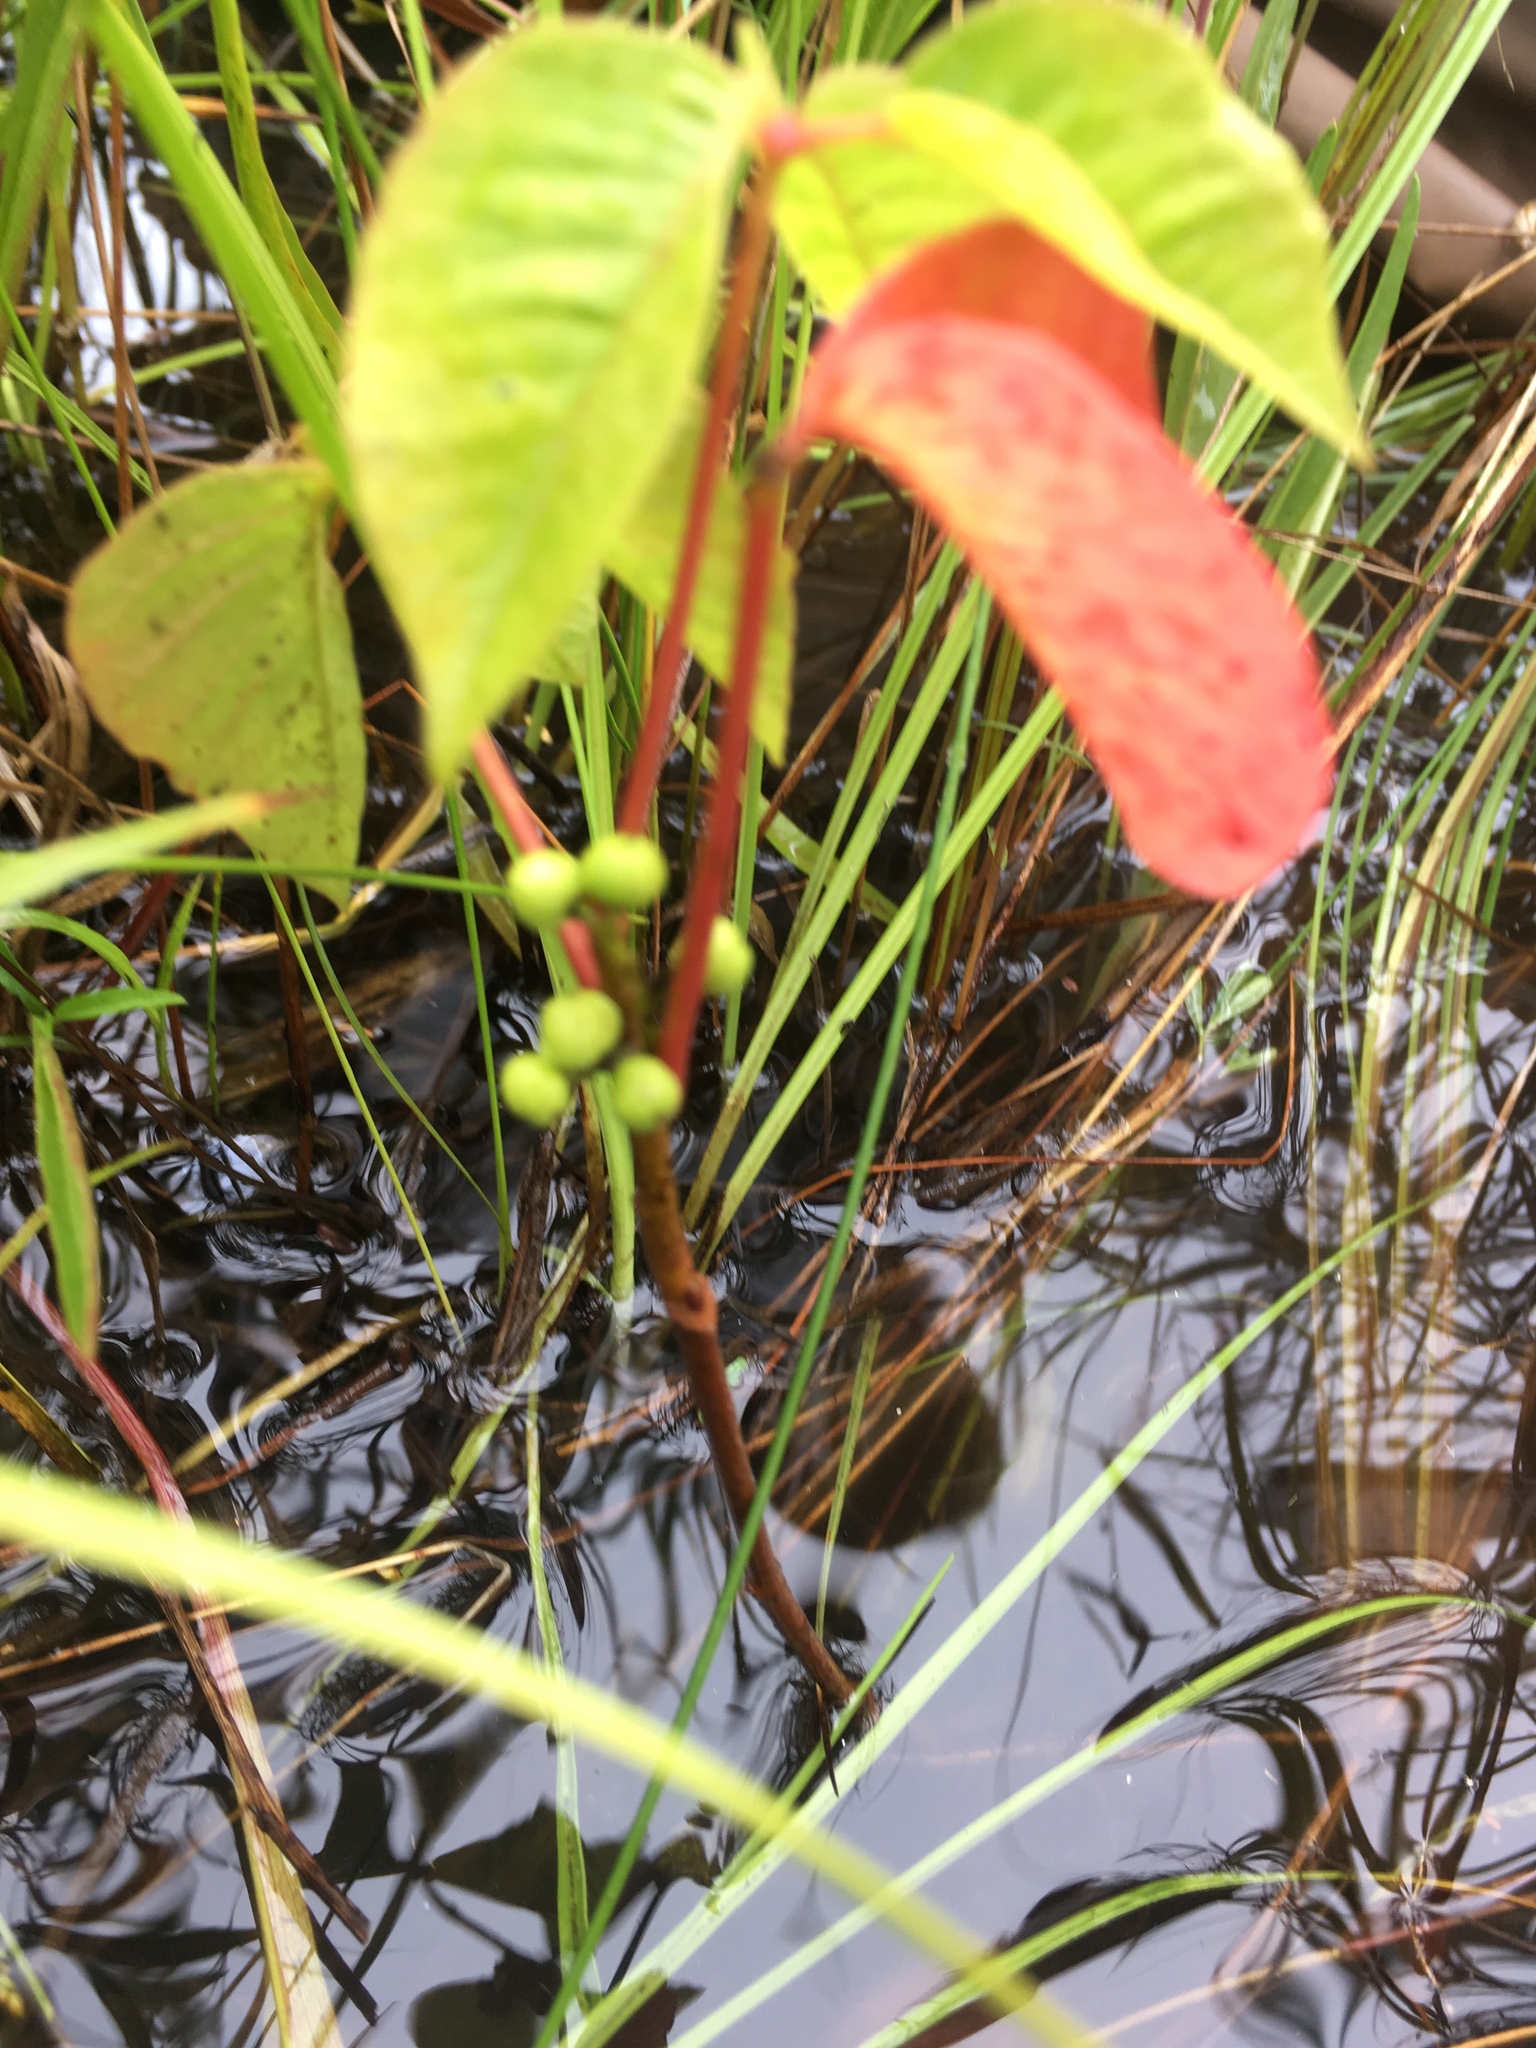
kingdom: Plantae
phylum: Tracheophyta
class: Magnoliopsida
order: Sapindales
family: Anacardiaceae
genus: Toxicodendron
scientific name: Toxicodendron radicans
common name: Poison ivy
